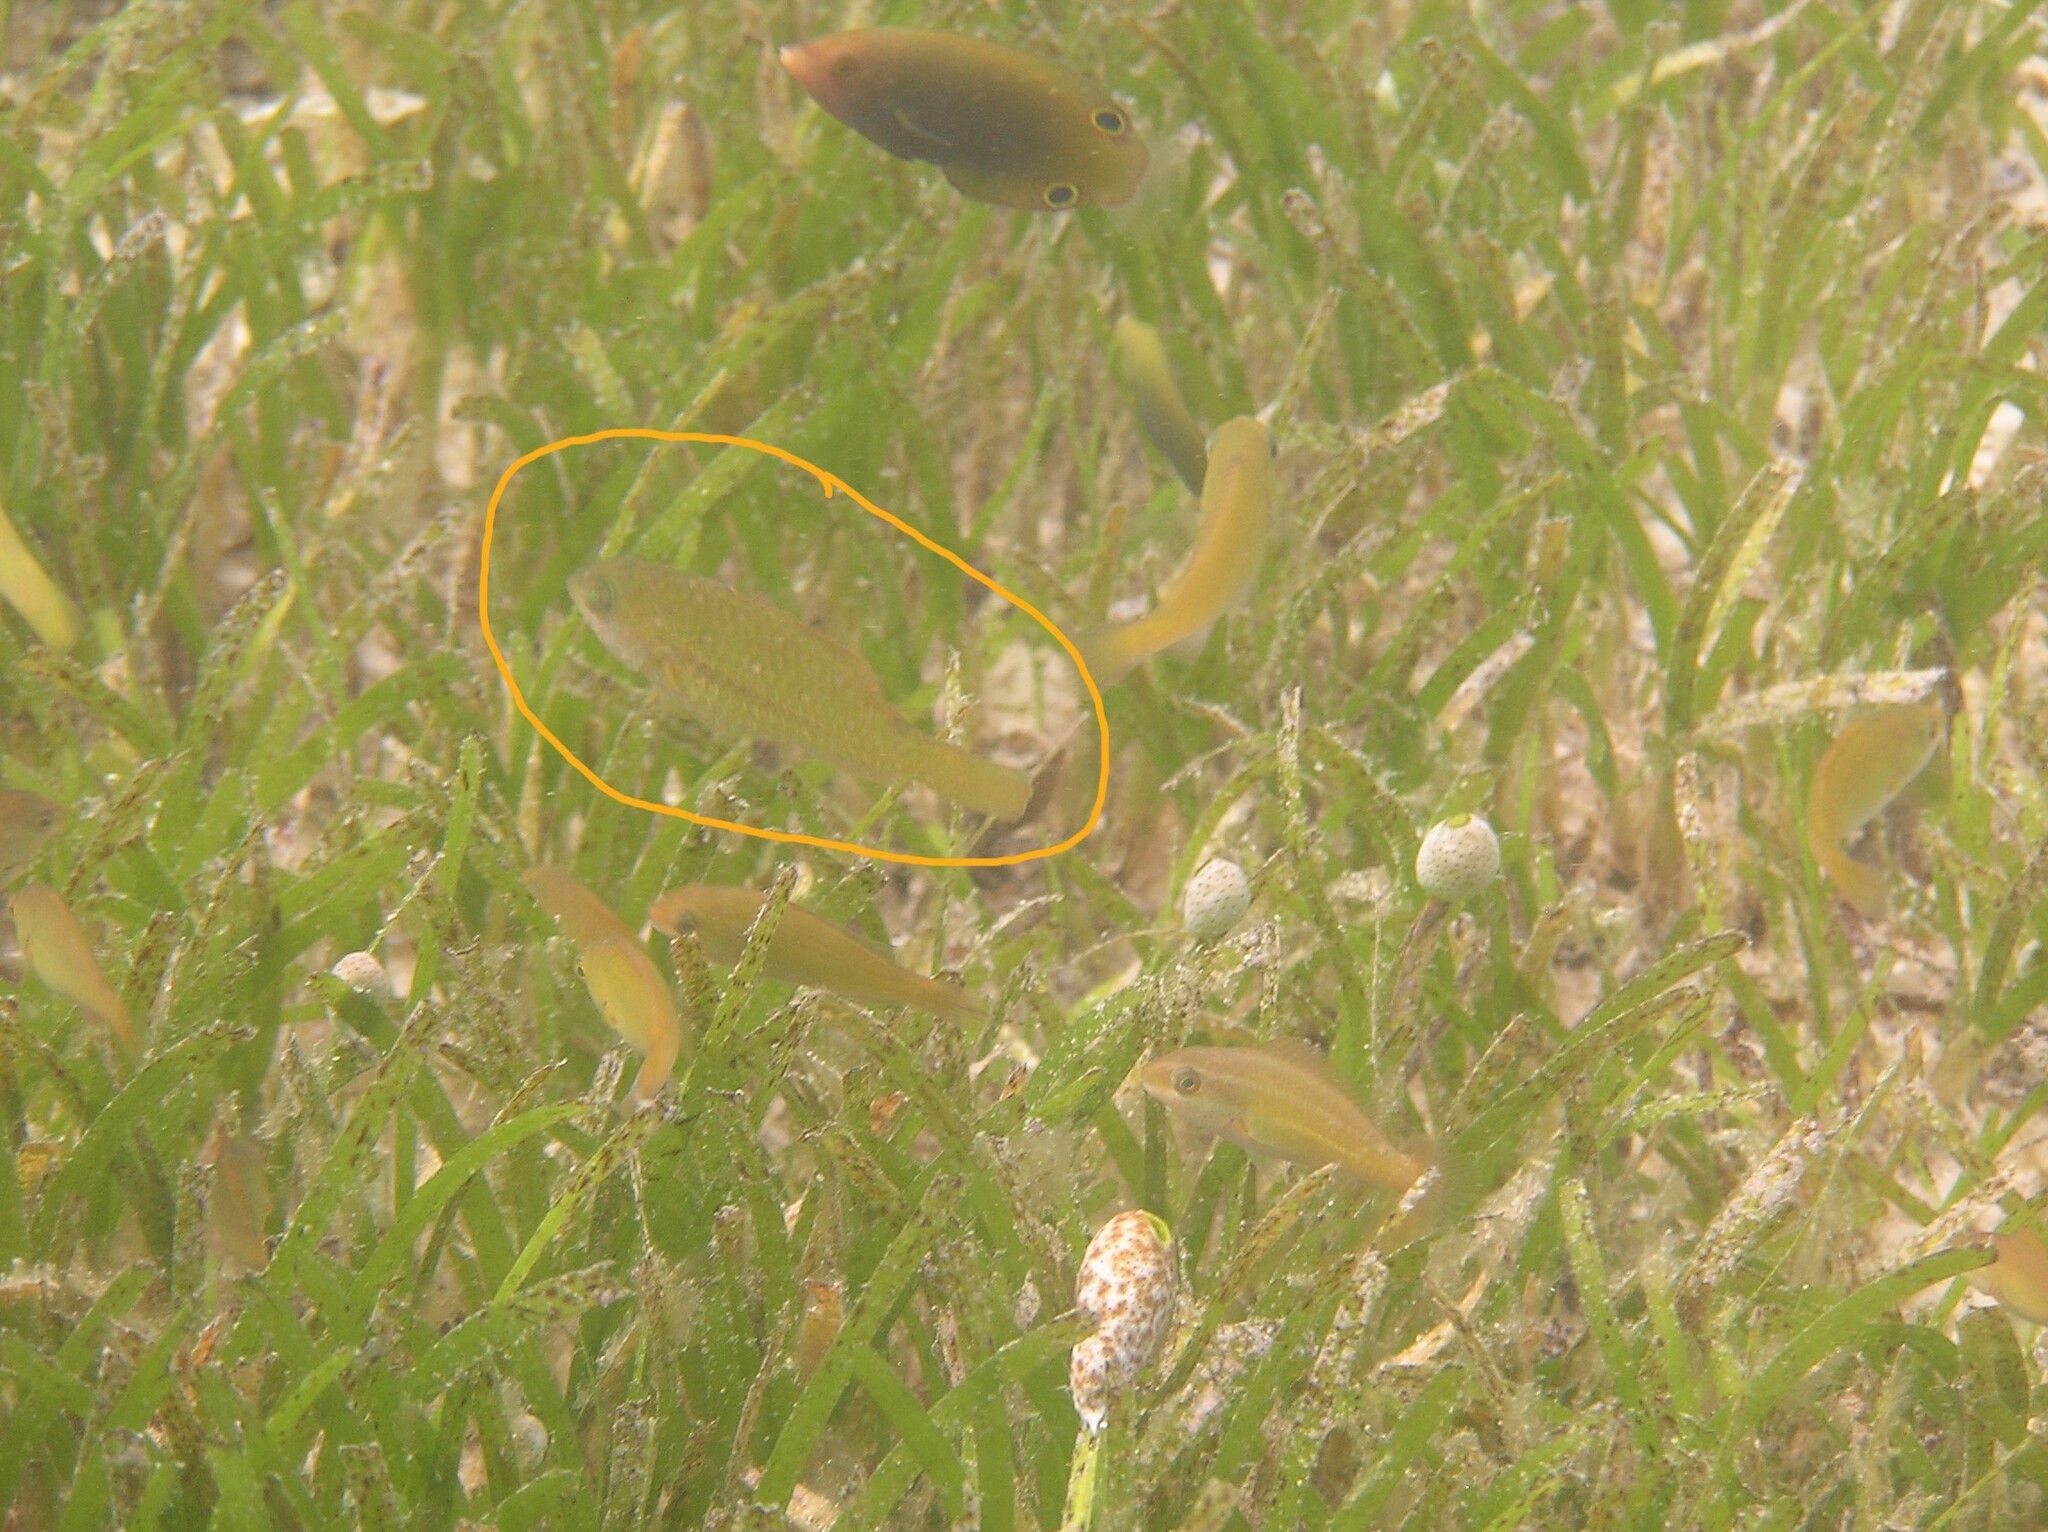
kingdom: Animalia
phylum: Chordata
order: Perciformes
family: Scaridae
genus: Leptoscarus
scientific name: Leptoscarus vaigiensis
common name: Marbled parrotfish
